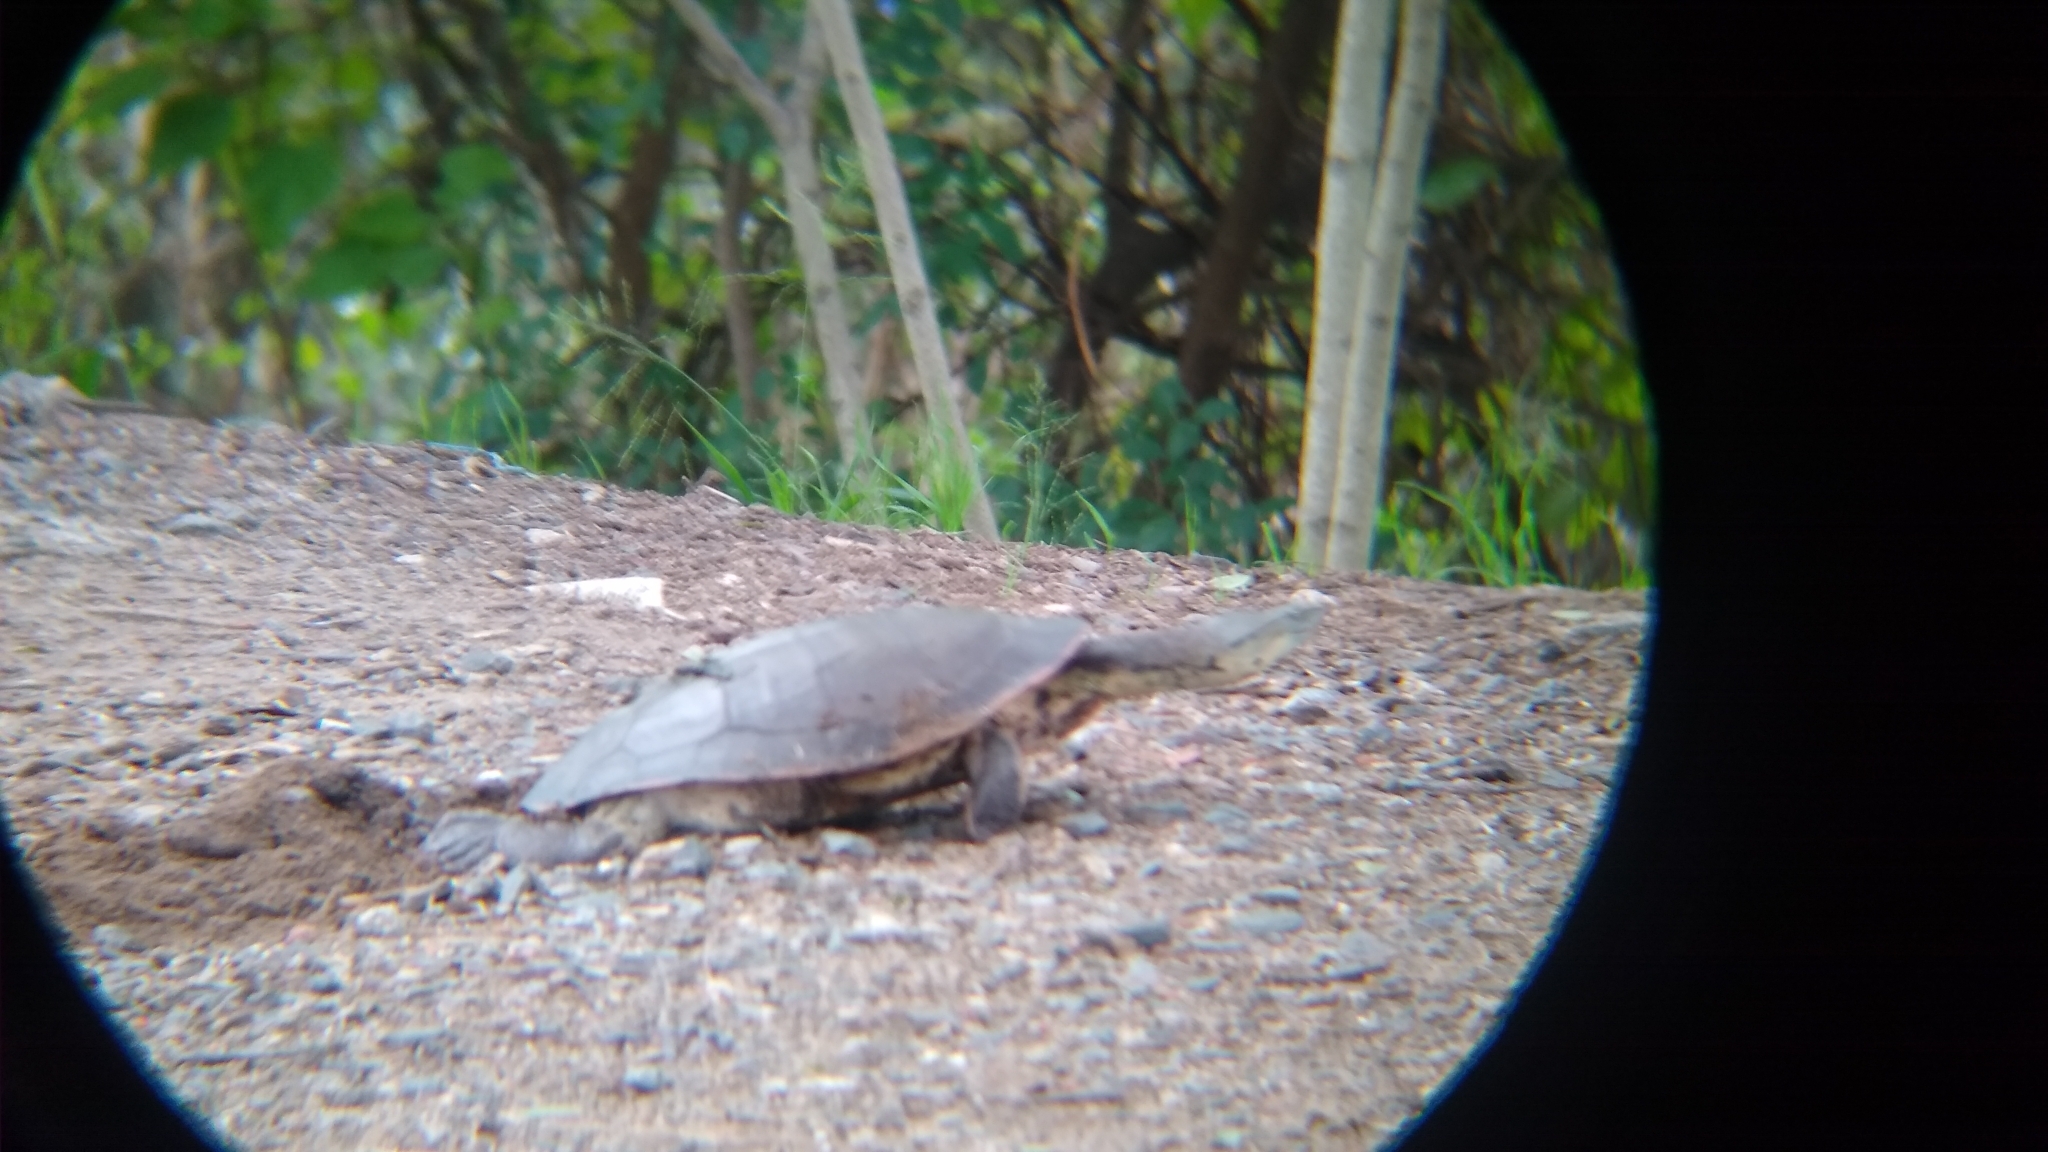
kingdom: Animalia
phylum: Chordata
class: Testudines
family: Chelidae
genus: Phrynops
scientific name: Phrynops hilarii
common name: Side-necked turtle of saint hillaire
